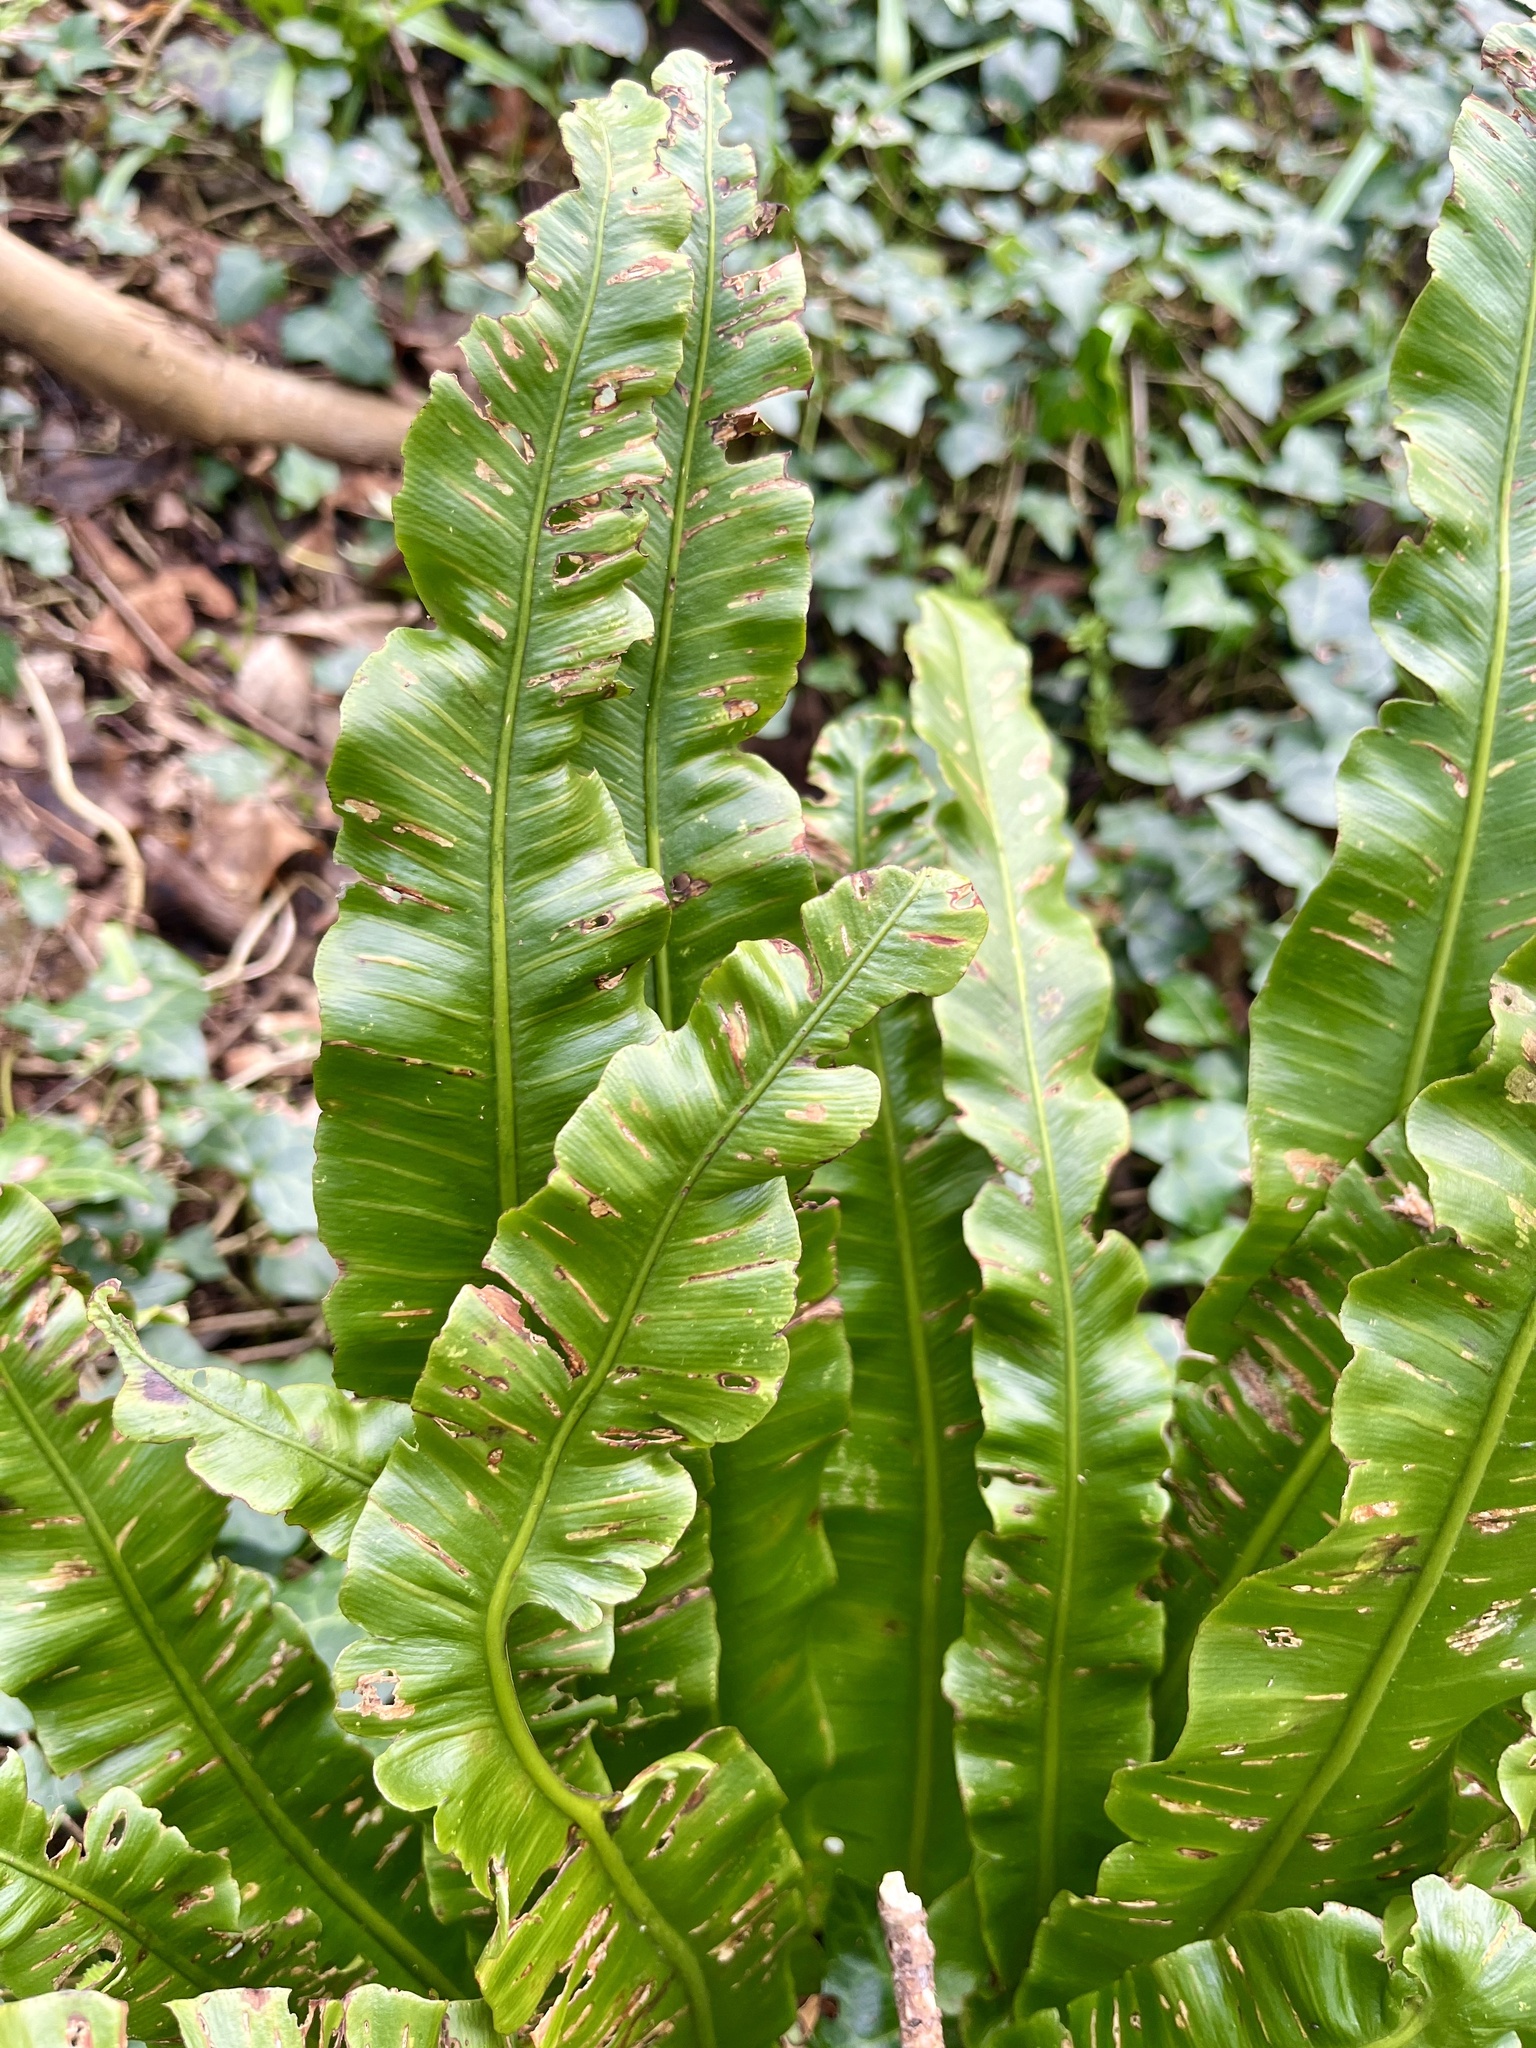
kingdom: Plantae
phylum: Tracheophyta
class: Polypodiopsida
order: Polypodiales
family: Aspleniaceae
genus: Asplenium
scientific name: Asplenium scolopendrium
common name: Hart's-tongue fern
